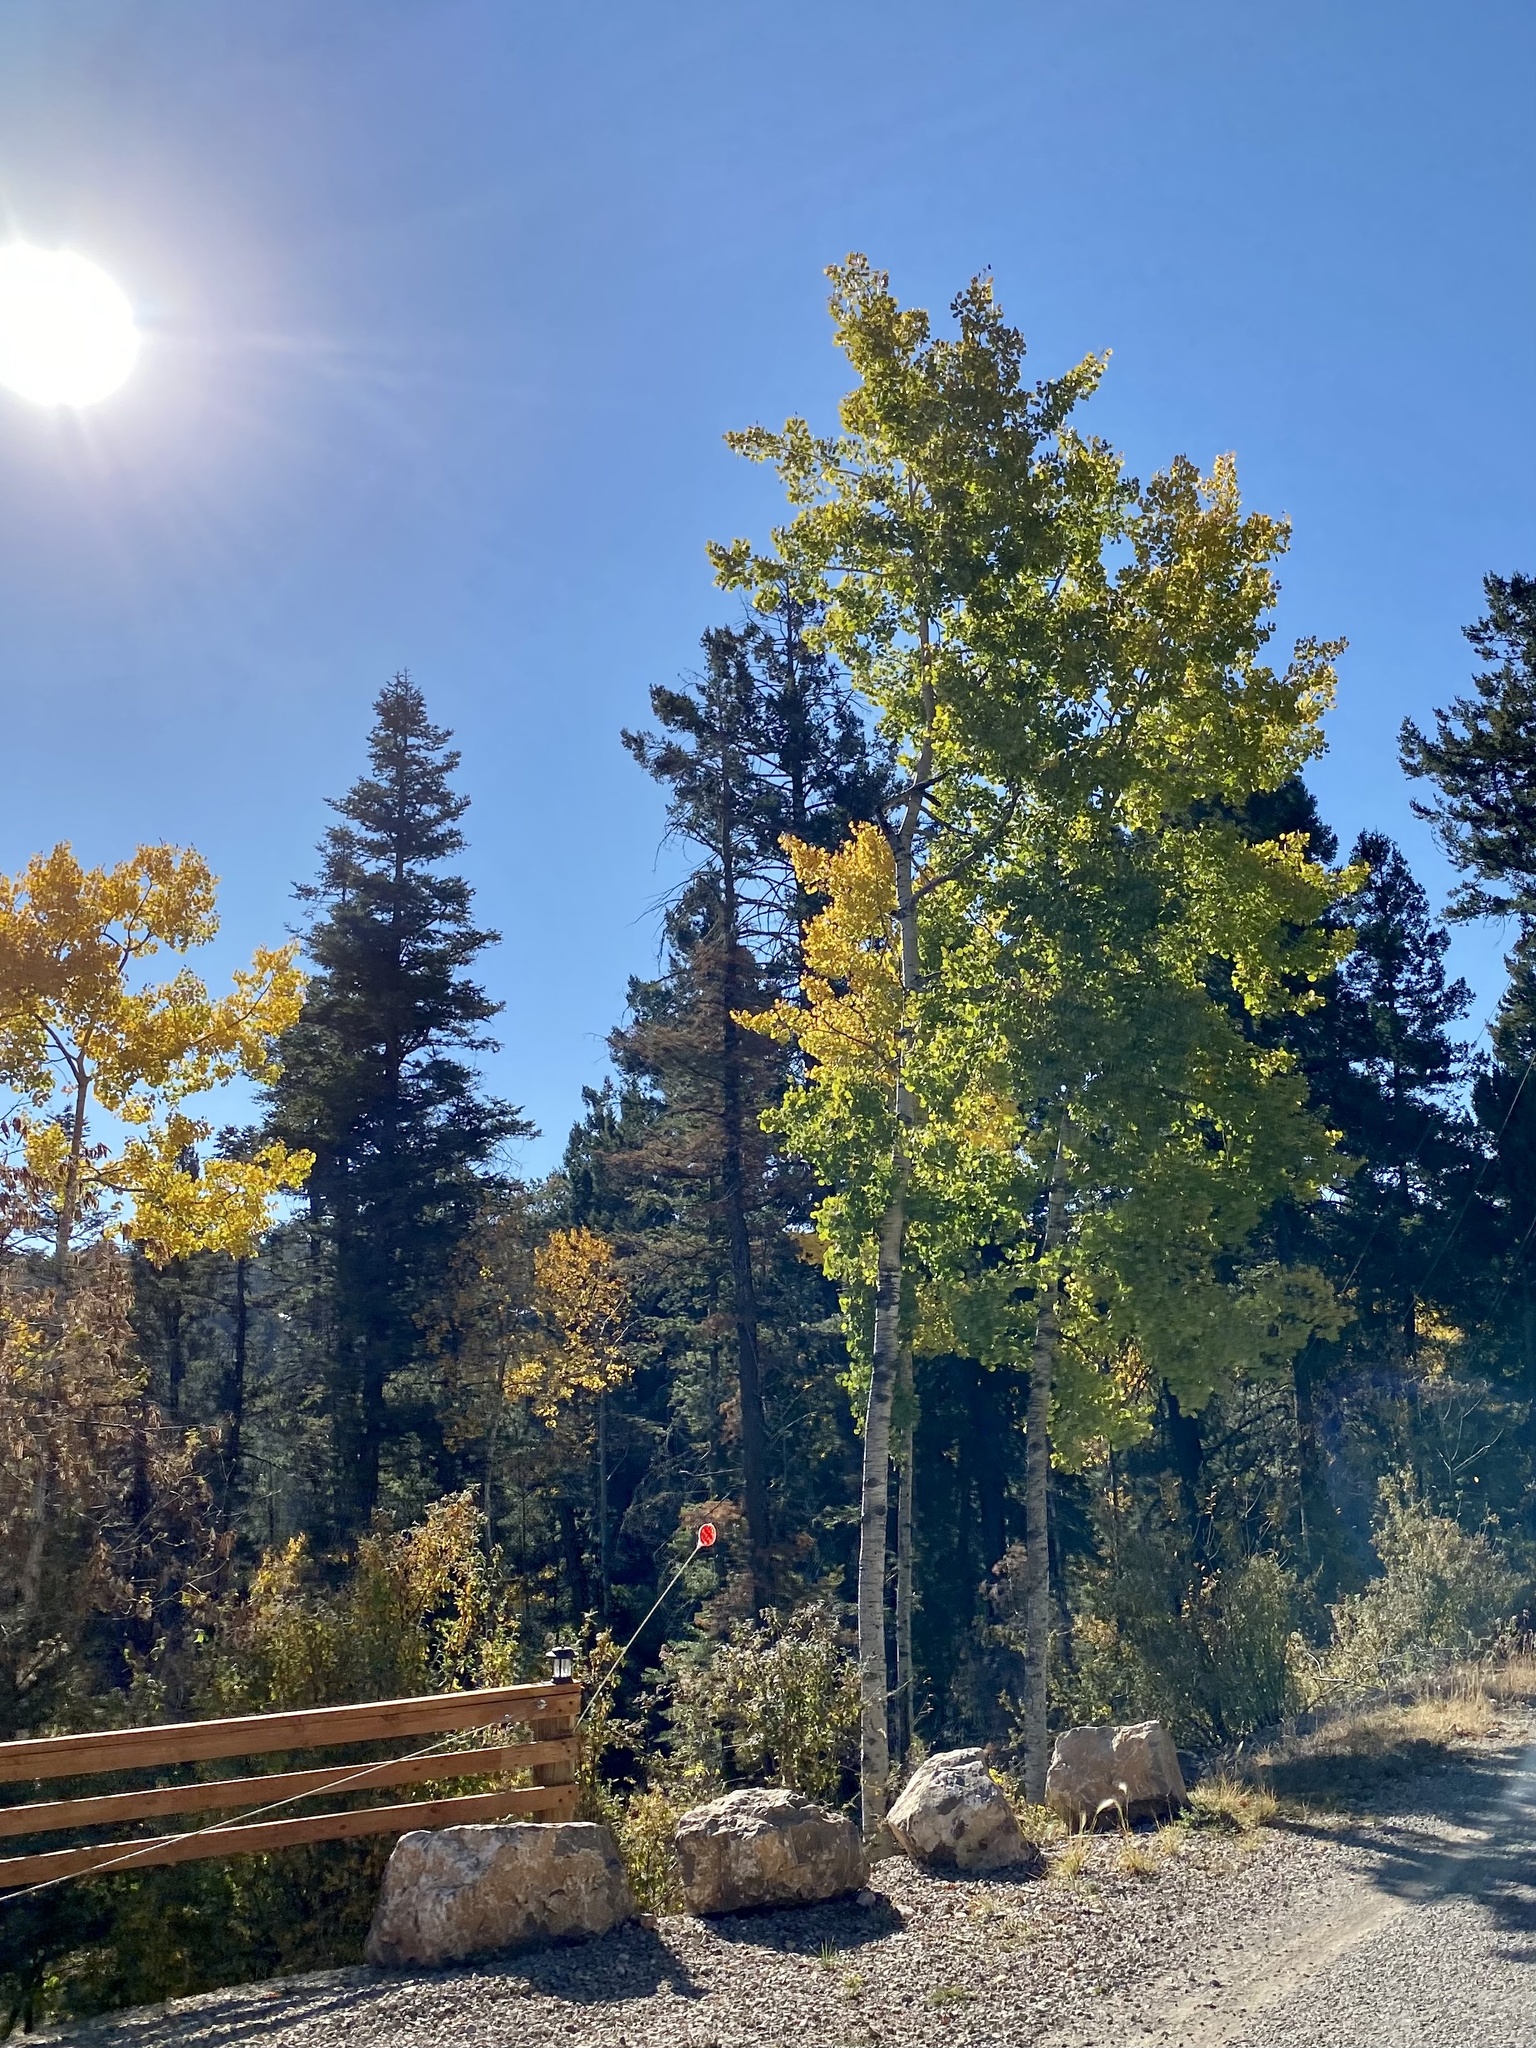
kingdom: Plantae
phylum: Tracheophyta
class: Magnoliopsida
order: Malpighiales
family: Salicaceae
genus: Populus
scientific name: Populus tremuloides
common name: Quaking aspen
